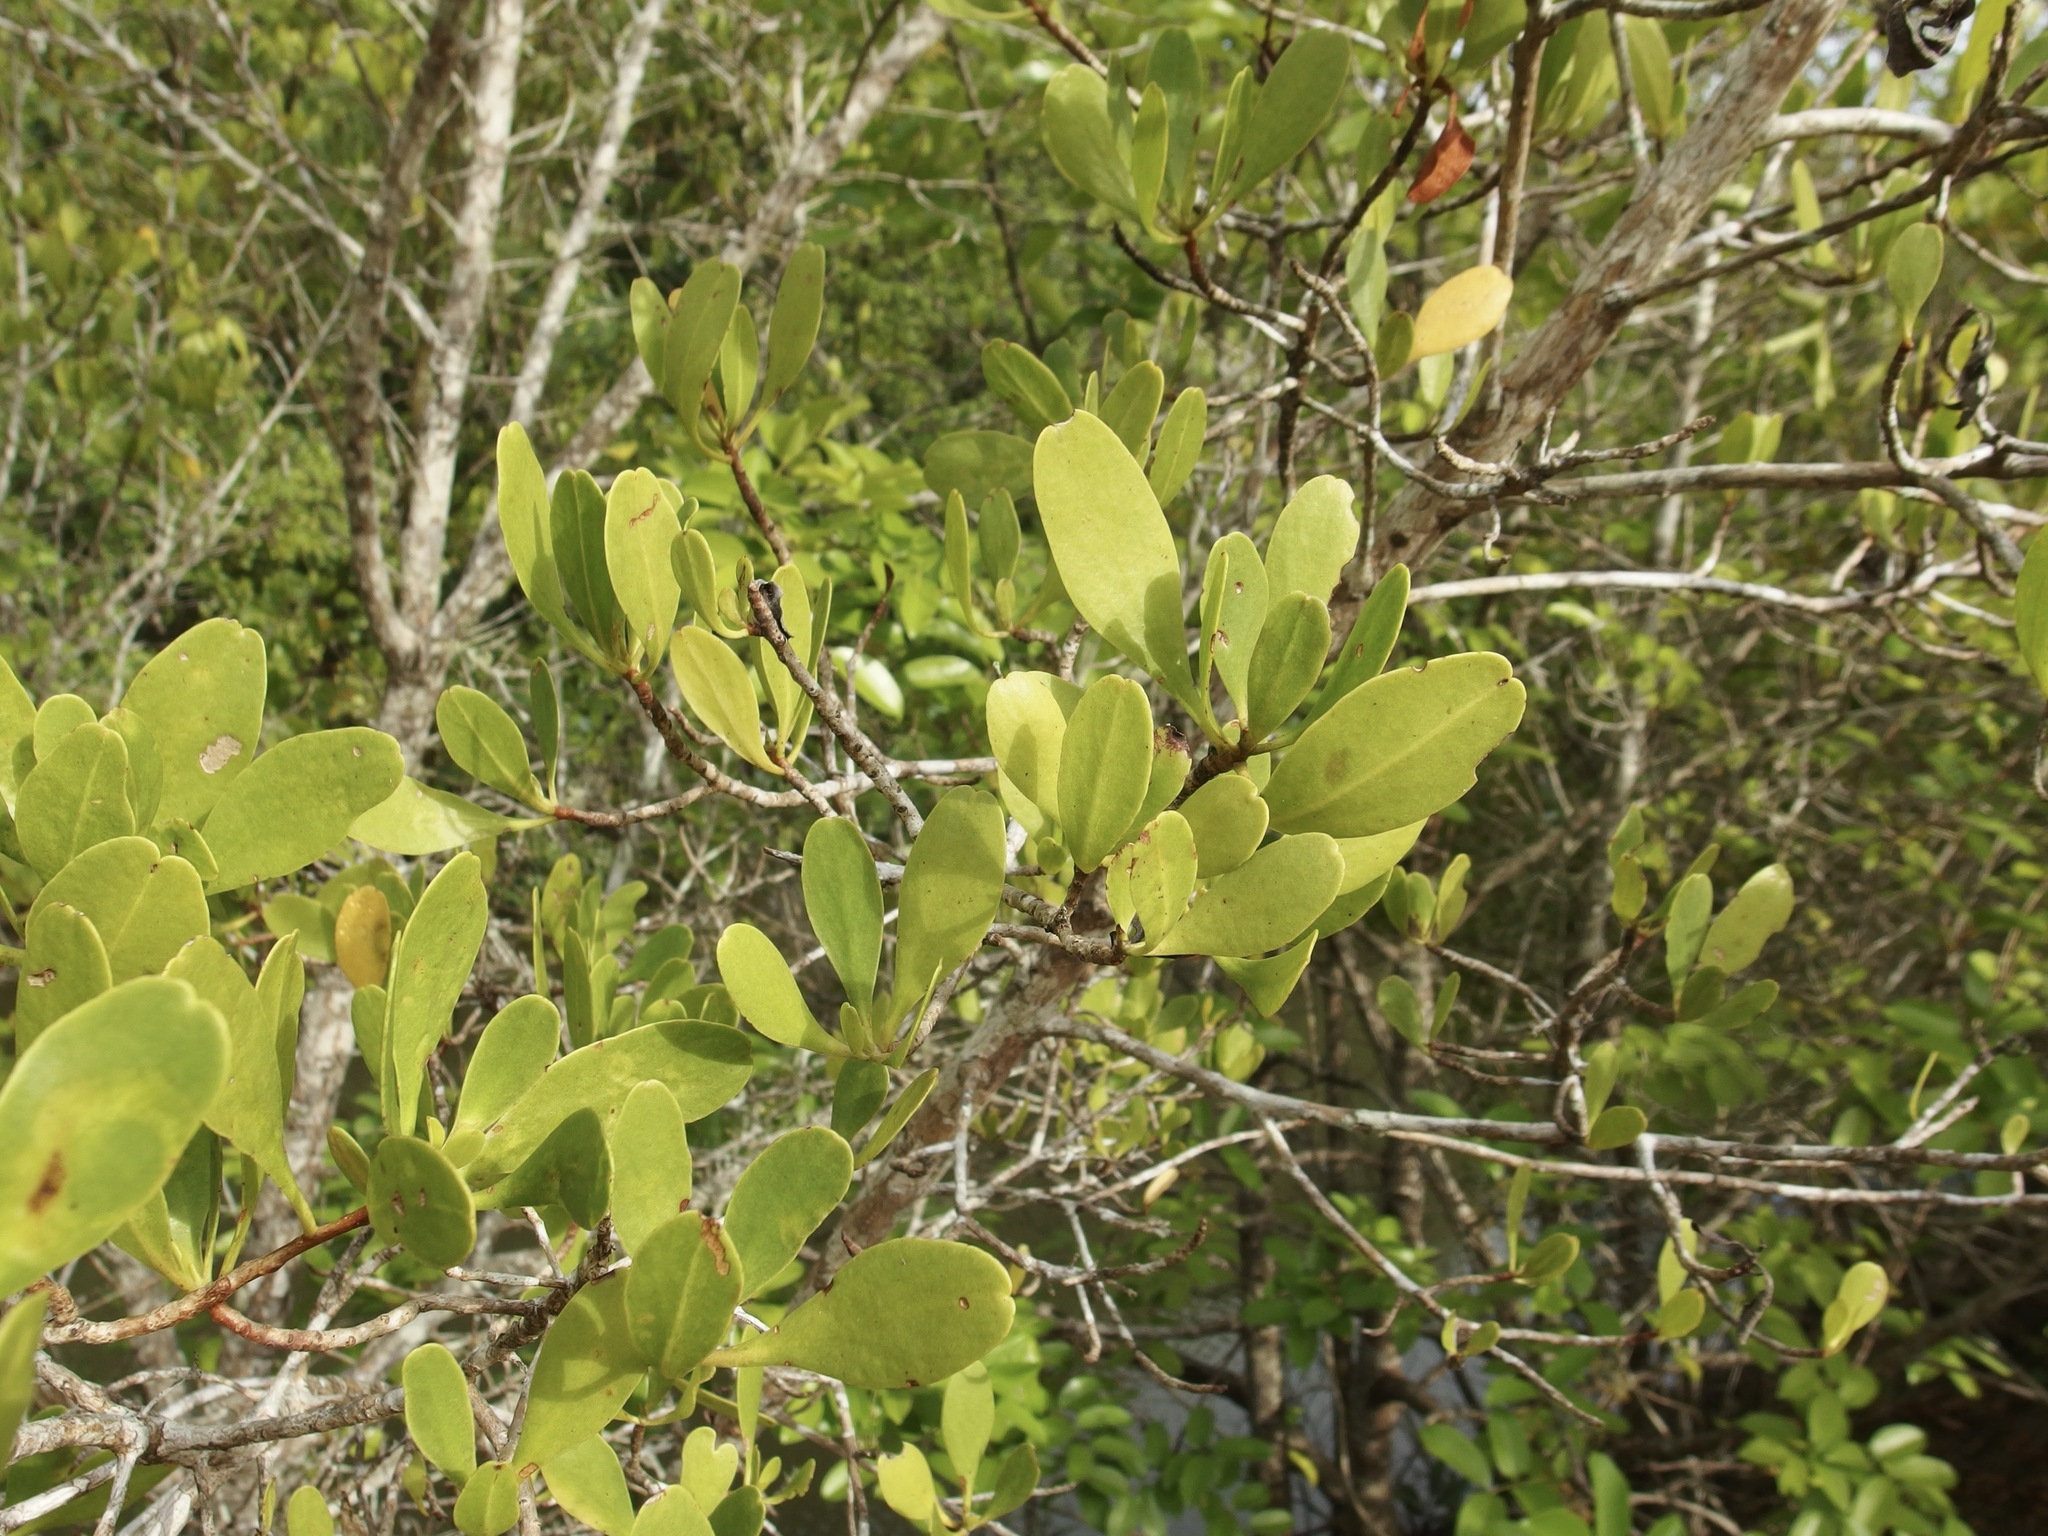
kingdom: Plantae
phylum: Tracheophyta
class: Magnoliopsida
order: Myrtales
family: Combretaceae
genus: Lumnitzera
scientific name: Lumnitzera racemosa
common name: White-flowered black mangrove
